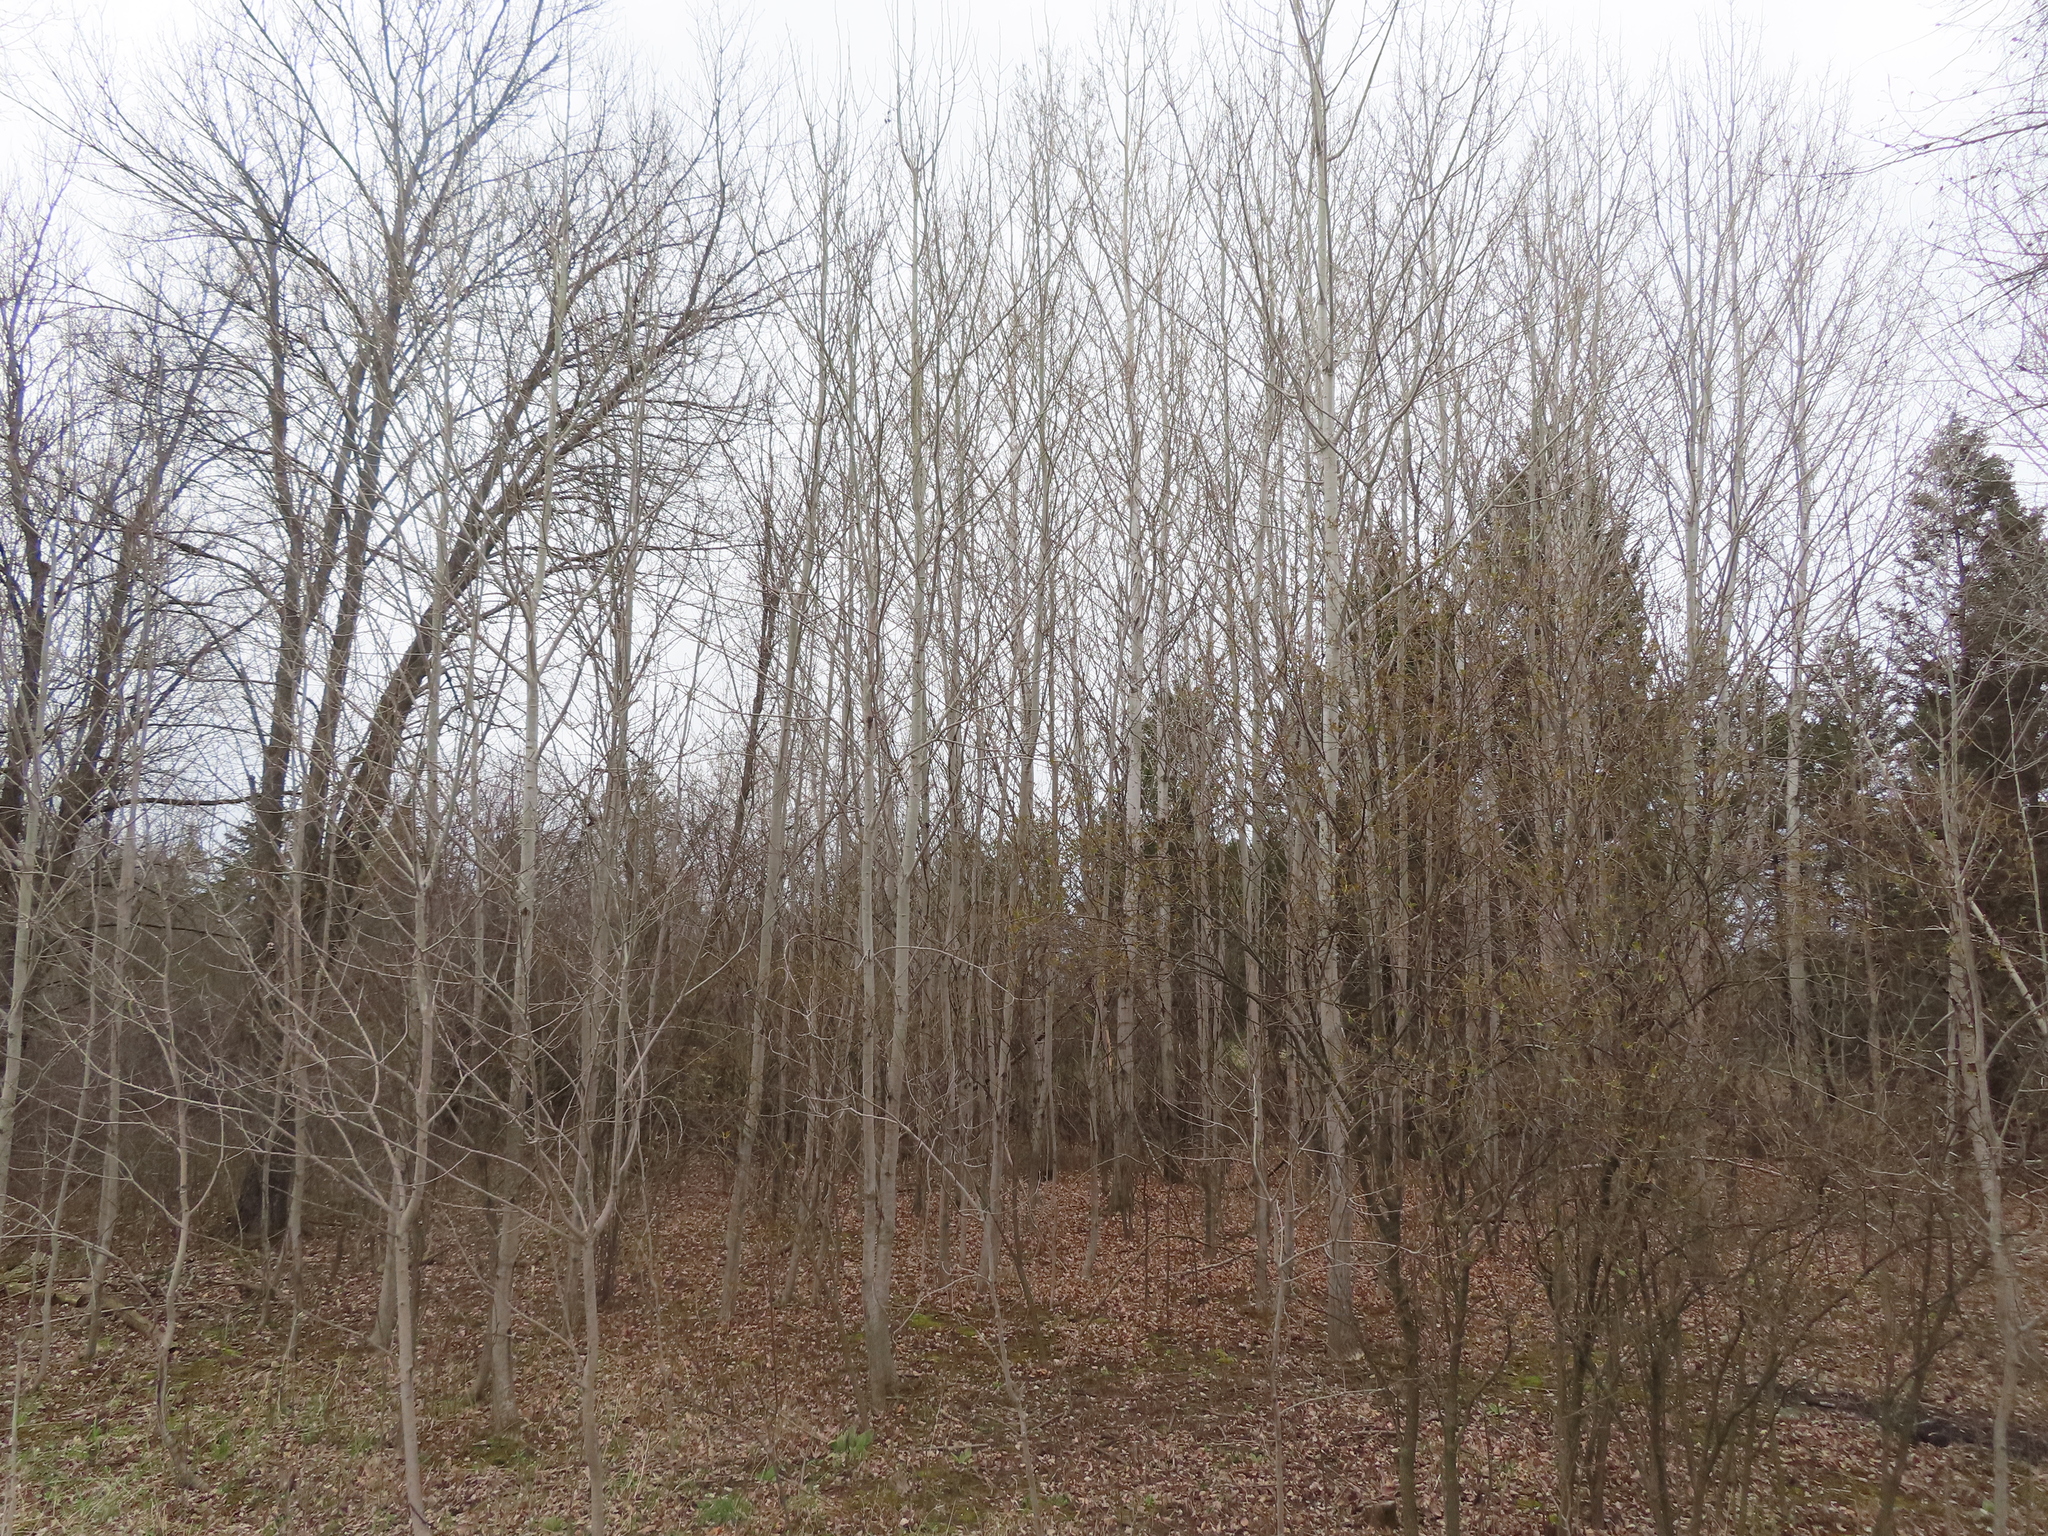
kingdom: Plantae
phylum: Tracheophyta
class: Magnoliopsida
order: Malpighiales
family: Salicaceae
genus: Populus
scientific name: Populus tremuloides
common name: Quaking aspen
